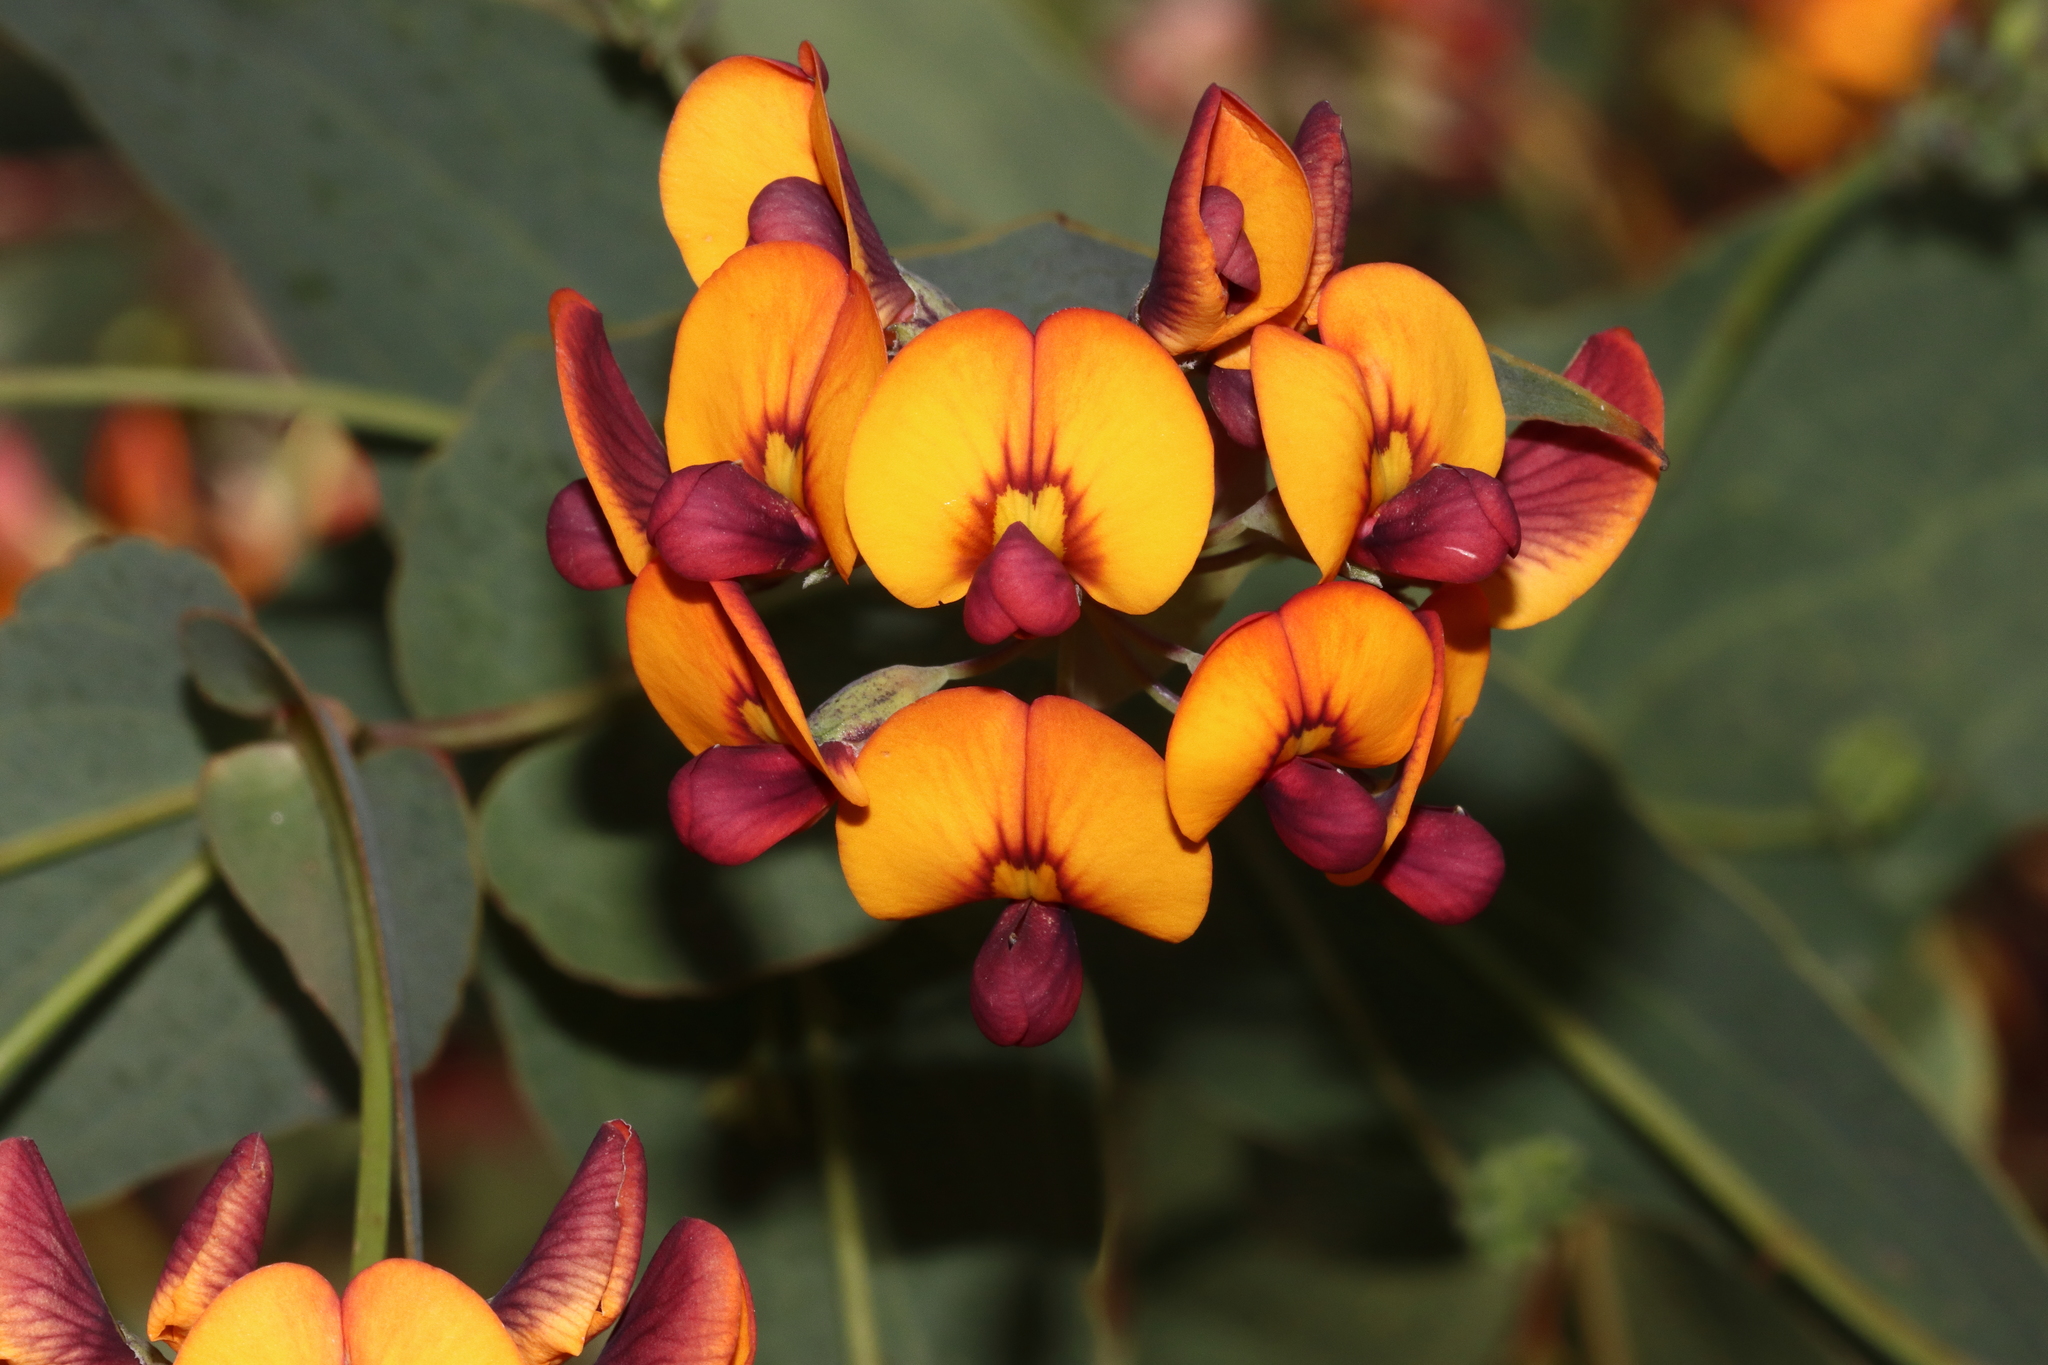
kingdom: Plantae
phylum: Tracheophyta
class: Magnoliopsida
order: Fabales
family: Fabaceae
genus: Daviesia
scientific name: Daviesia cordata
